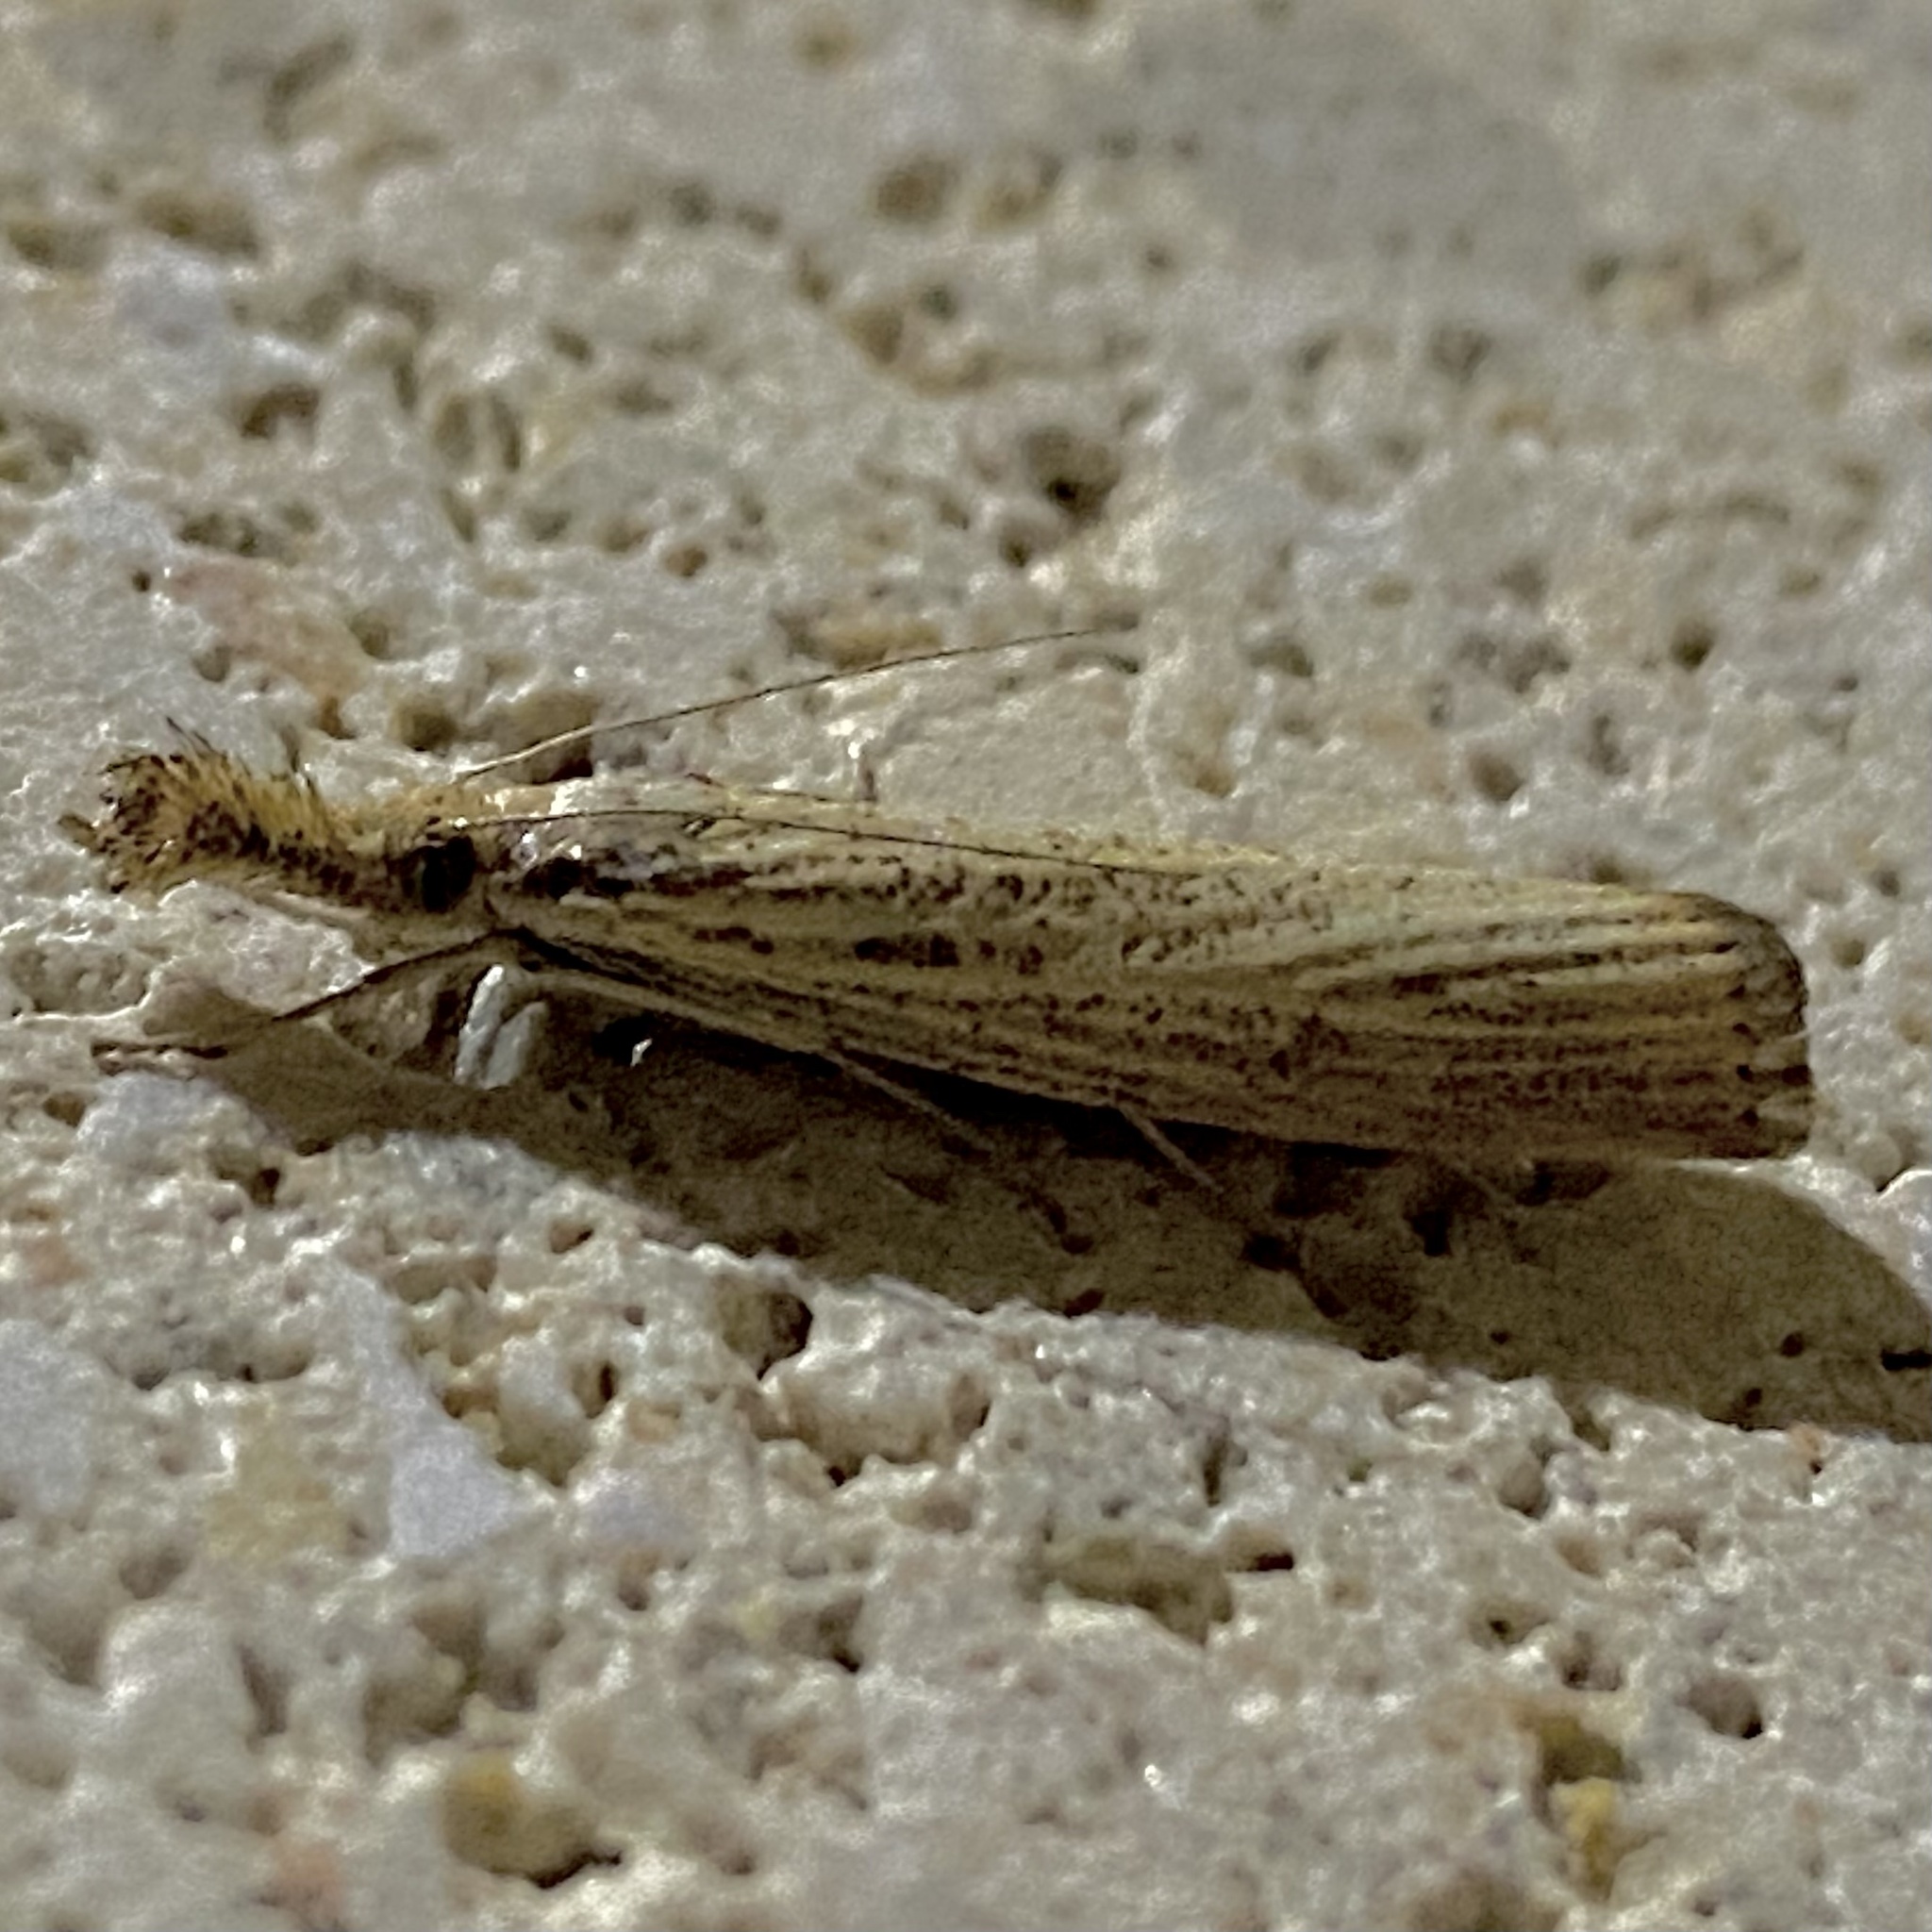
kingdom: Animalia
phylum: Arthropoda
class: Insecta
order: Lepidoptera
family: Crambidae
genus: Agriphila
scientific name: Agriphila vulgivagellus
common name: Vagabond crambus moth
